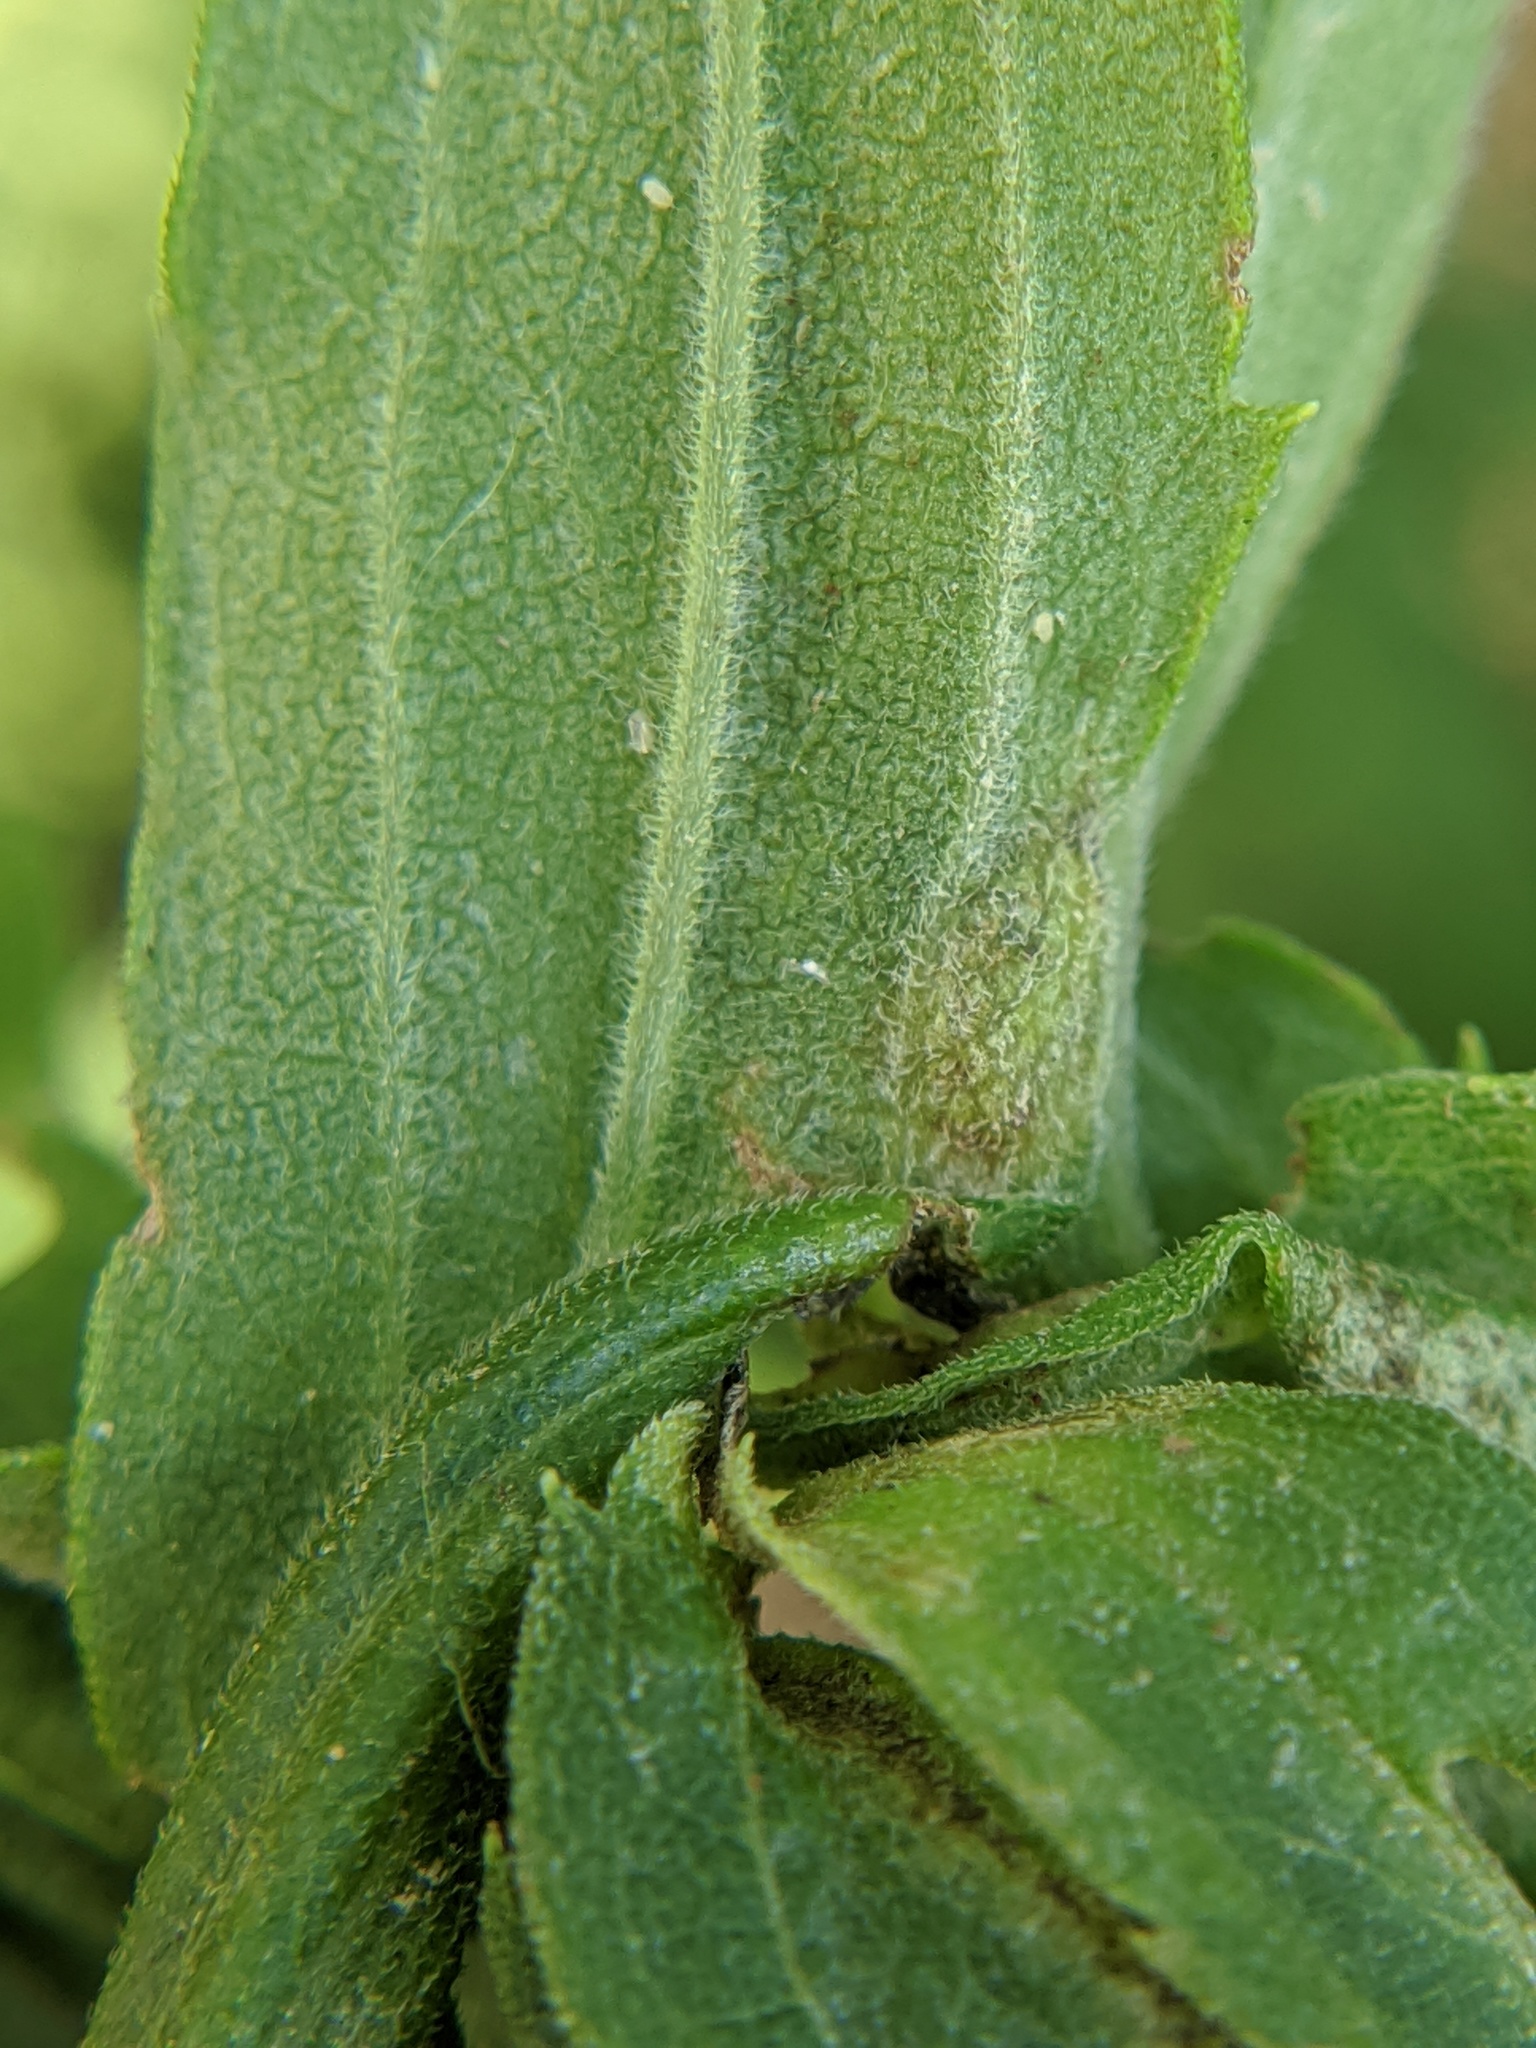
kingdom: Animalia
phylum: Arthropoda
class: Insecta
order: Diptera
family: Cecidomyiidae
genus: Asphondylia
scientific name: Asphondylia solidaginis
